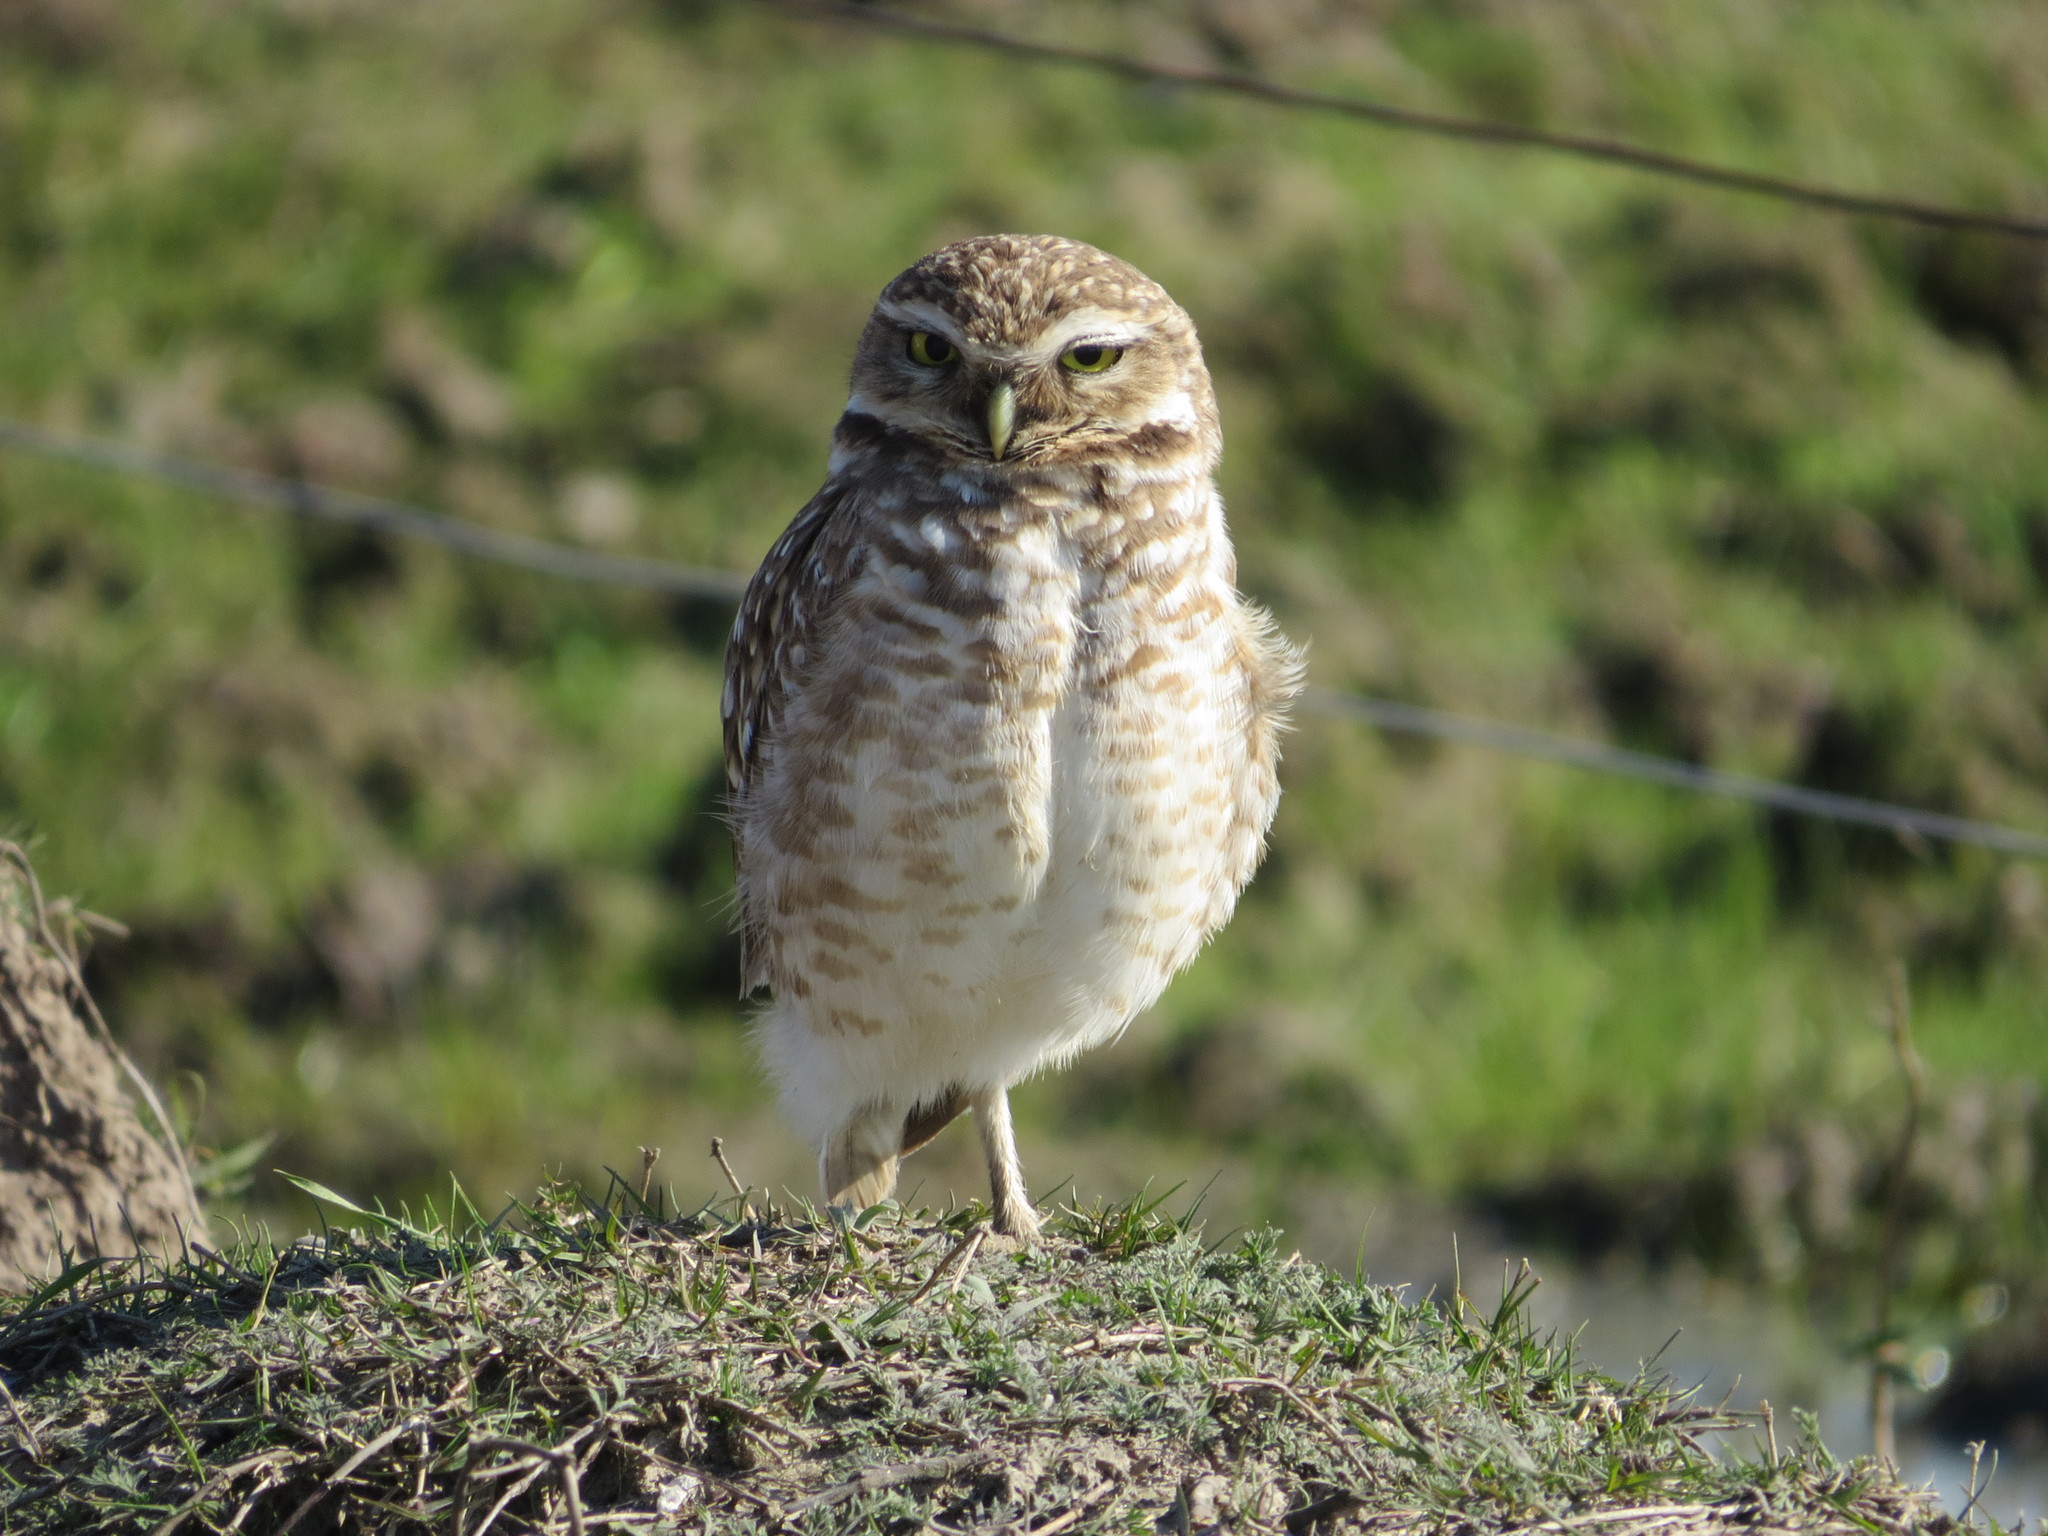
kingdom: Animalia
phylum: Chordata
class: Aves
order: Strigiformes
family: Strigidae
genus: Athene
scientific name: Athene cunicularia
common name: Burrowing owl
